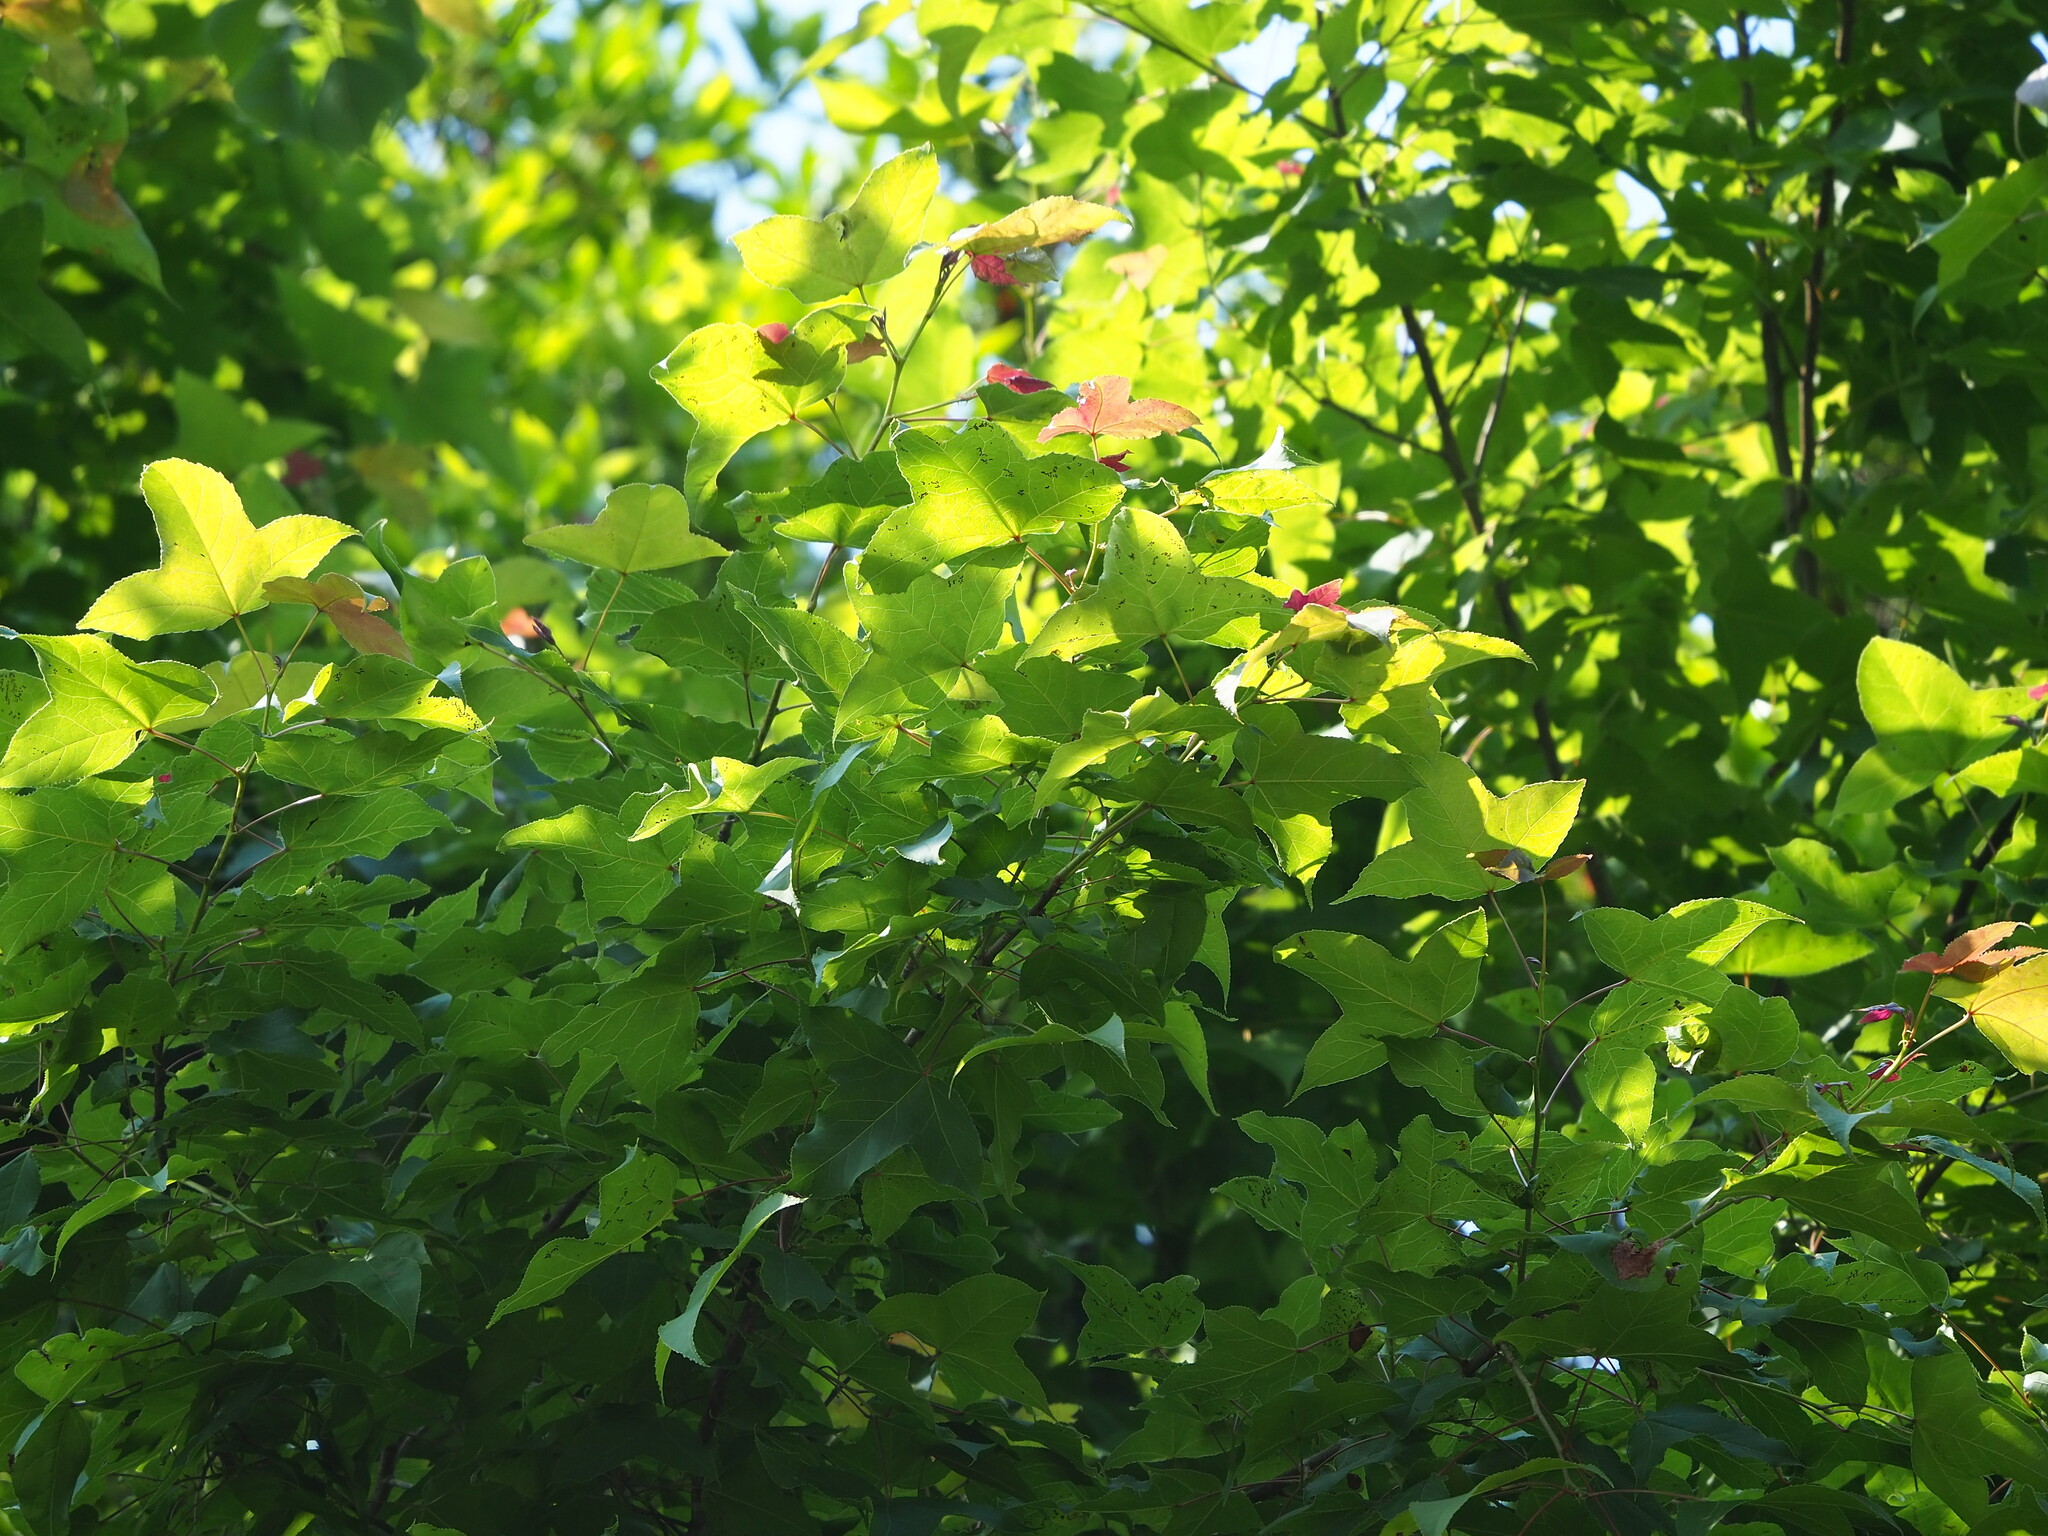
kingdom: Plantae
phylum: Tracheophyta
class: Magnoliopsida
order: Saxifragales
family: Altingiaceae
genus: Liquidambar
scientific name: Liquidambar formosana
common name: Chinese sweet gum
